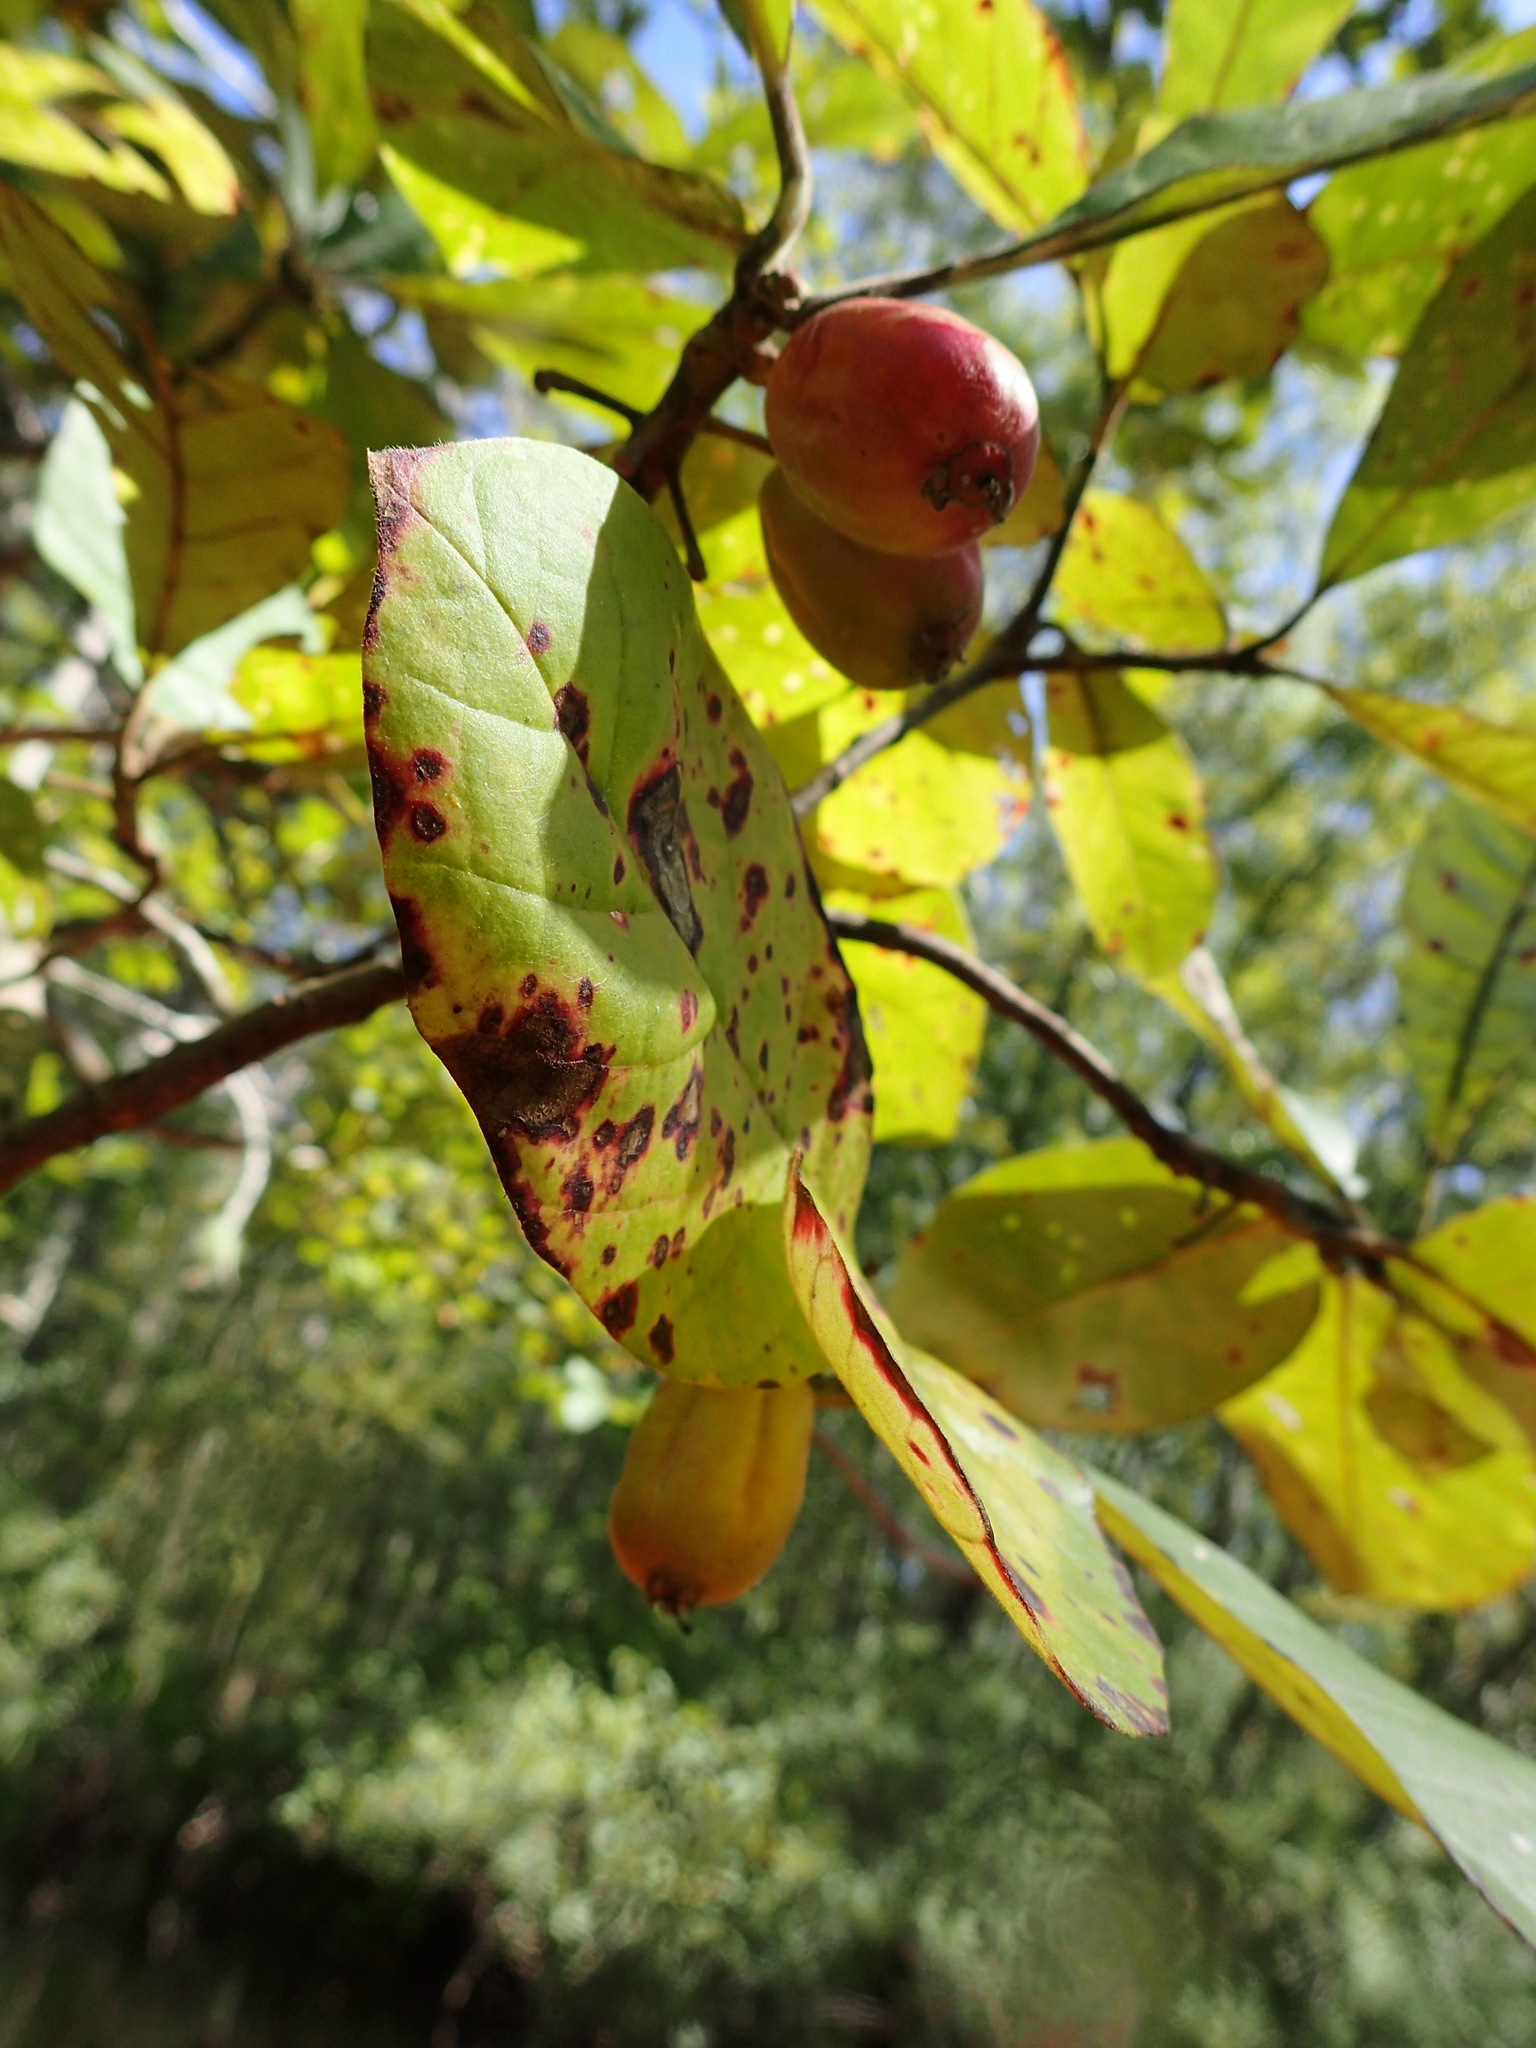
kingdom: Plantae
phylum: Tracheophyta
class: Magnoliopsida
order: Cornales
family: Nyssaceae
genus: Nyssa
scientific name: Nyssa ogeche
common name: Ogeechee tupelo
